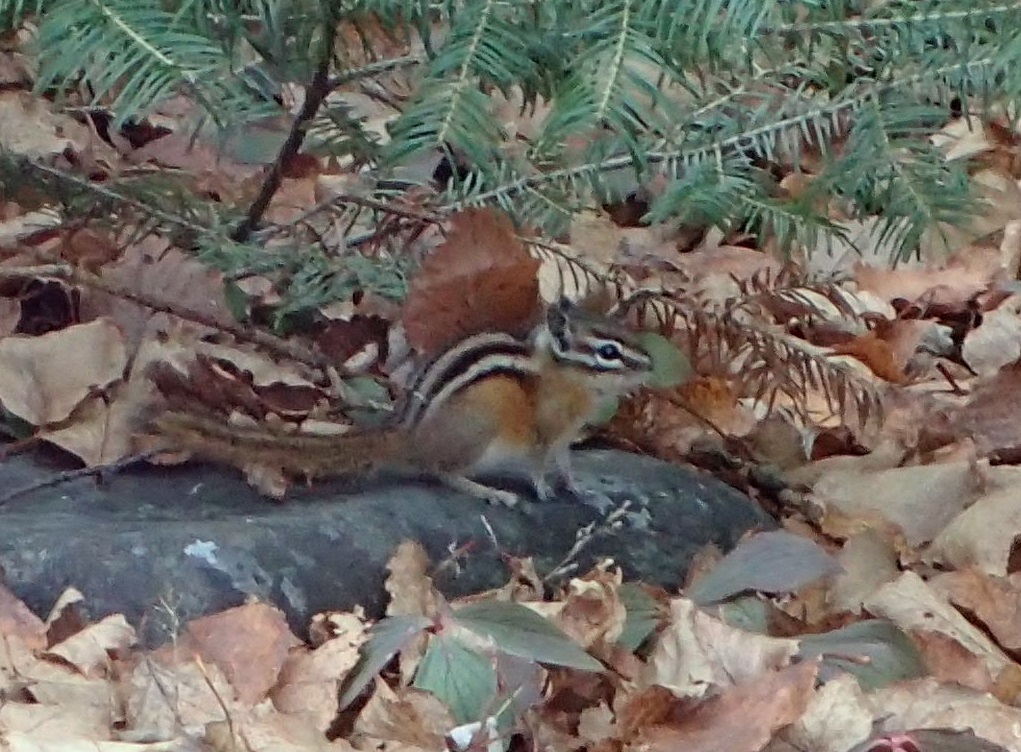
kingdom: Animalia
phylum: Chordata
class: Mammalia
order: Rodentia
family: Sciuridae
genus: Tamias
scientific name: Tamias minimus
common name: Least chipmunk
